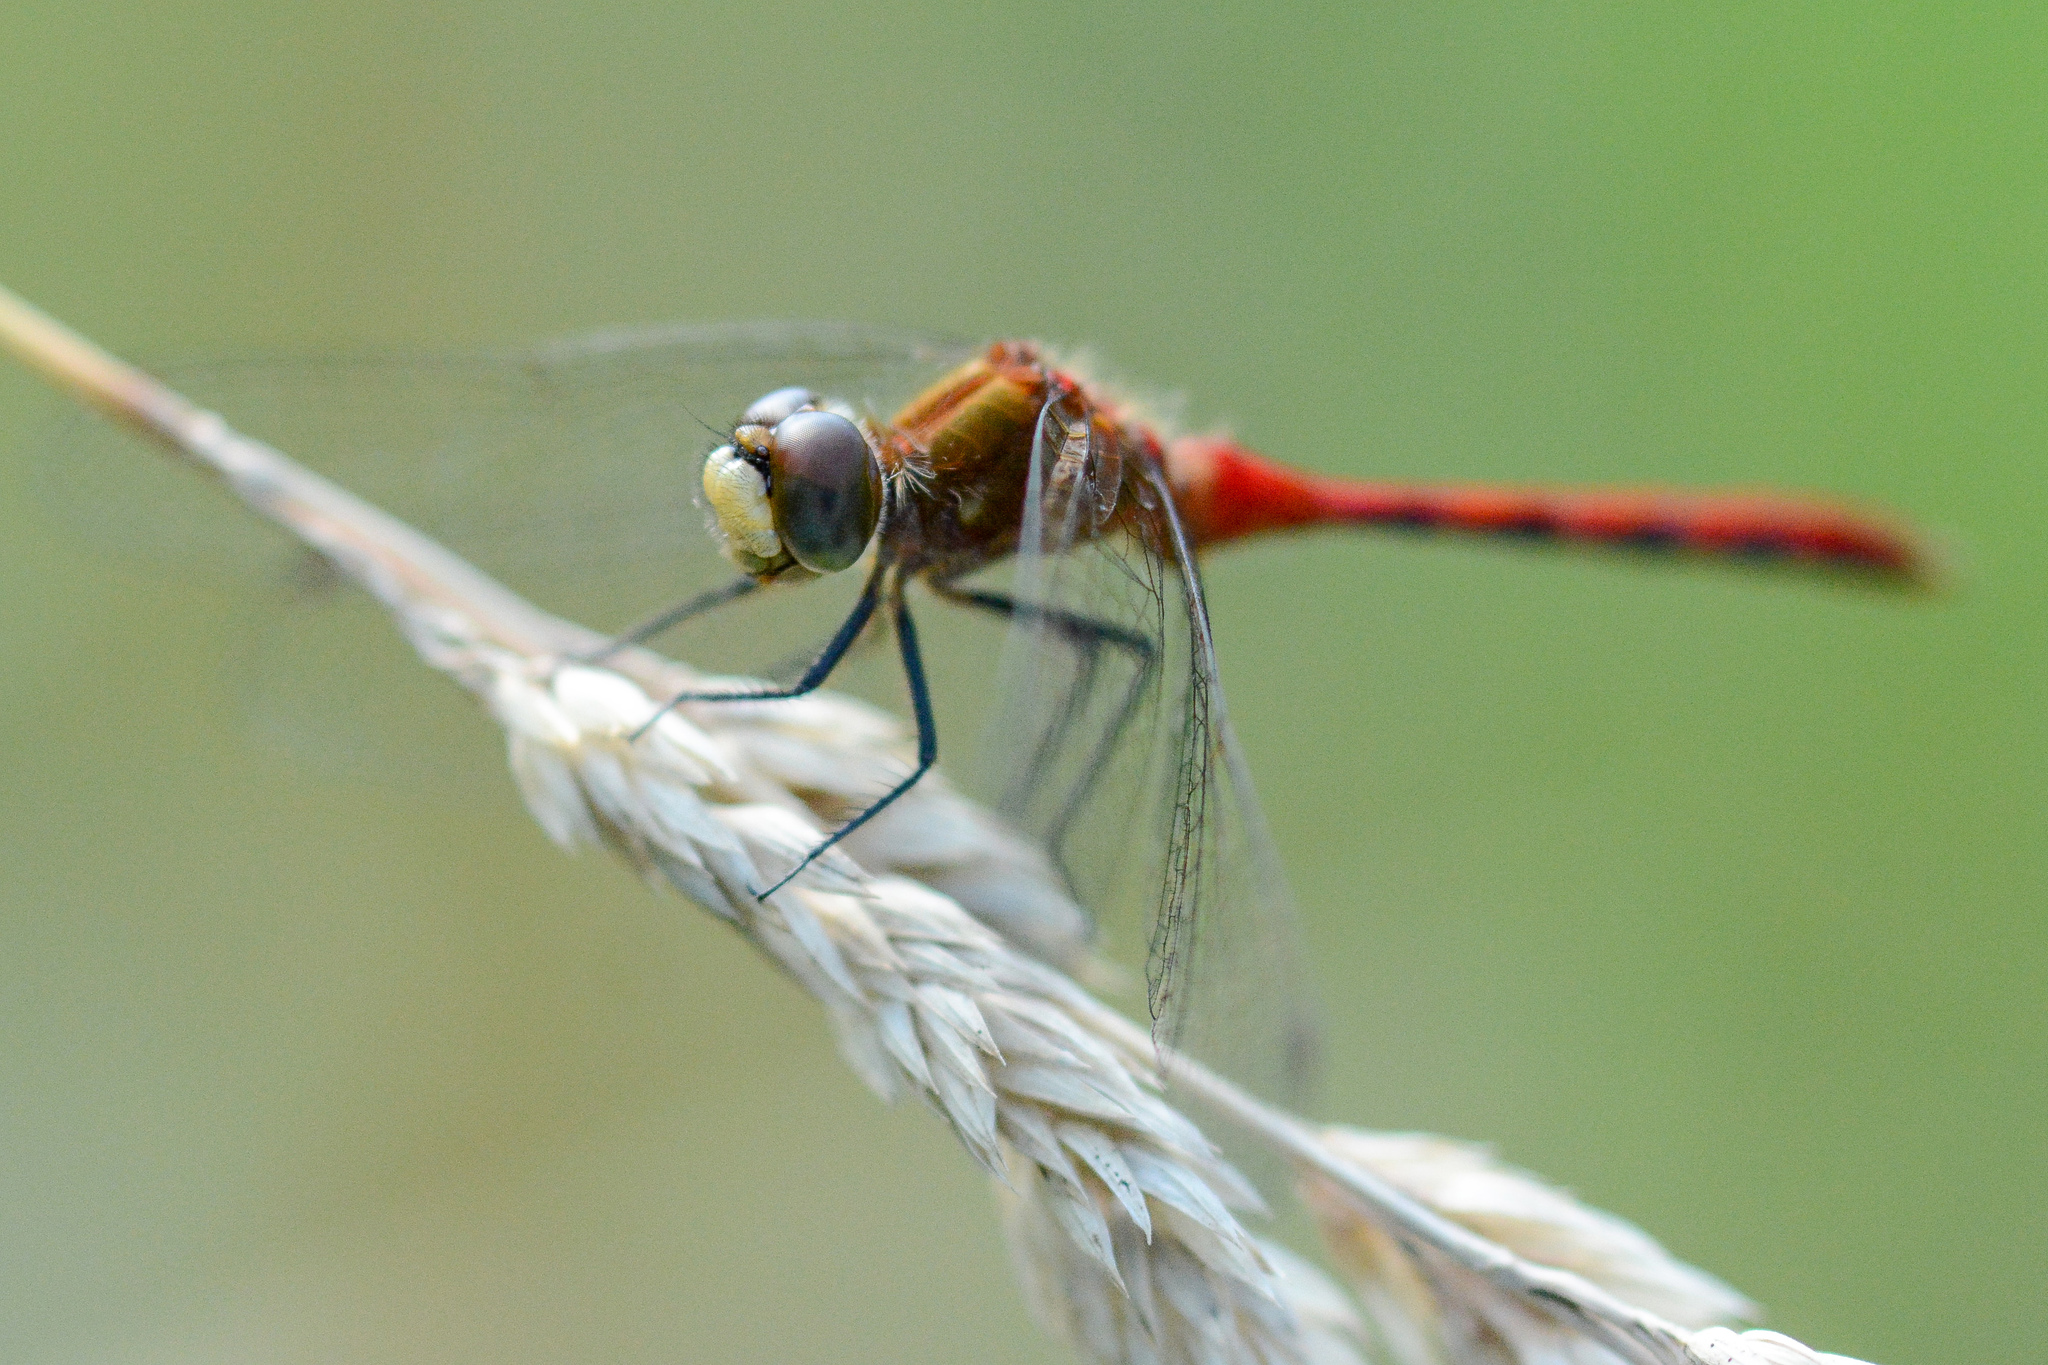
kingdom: Animalia
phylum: Arthropoda
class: Insecta
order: Odonata
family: Libellulidae
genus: Sympetrum
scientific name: Sympetrum obtrusum
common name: White-faced meadowhawk
